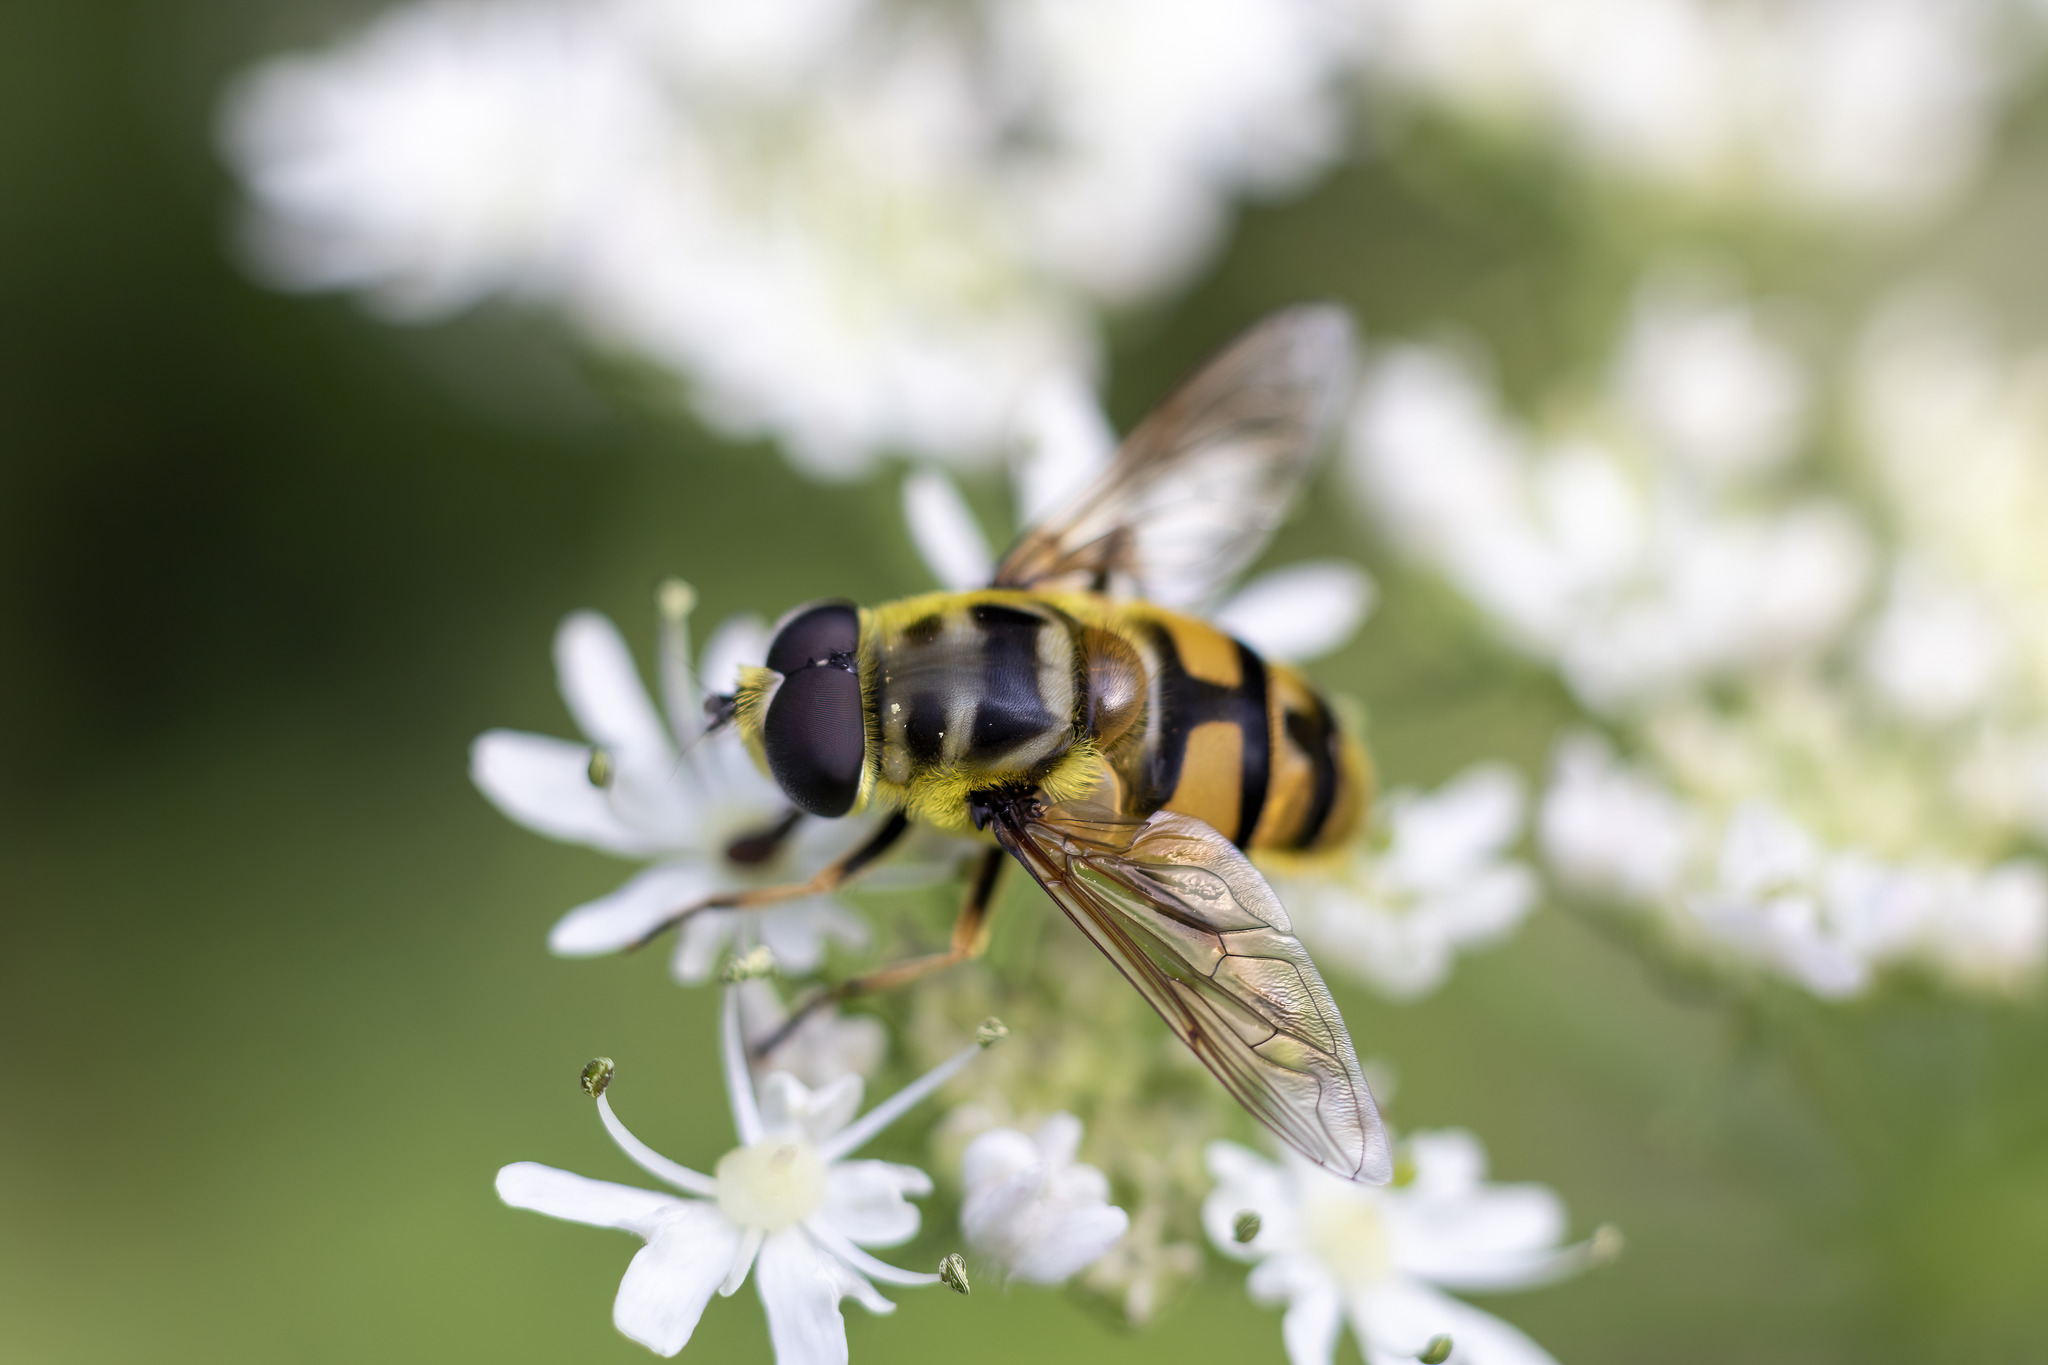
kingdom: Animalia
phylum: Arthropoda
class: Insecta
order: Diptera
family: Syrphidae
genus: Myathropa
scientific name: Myathropa florea
